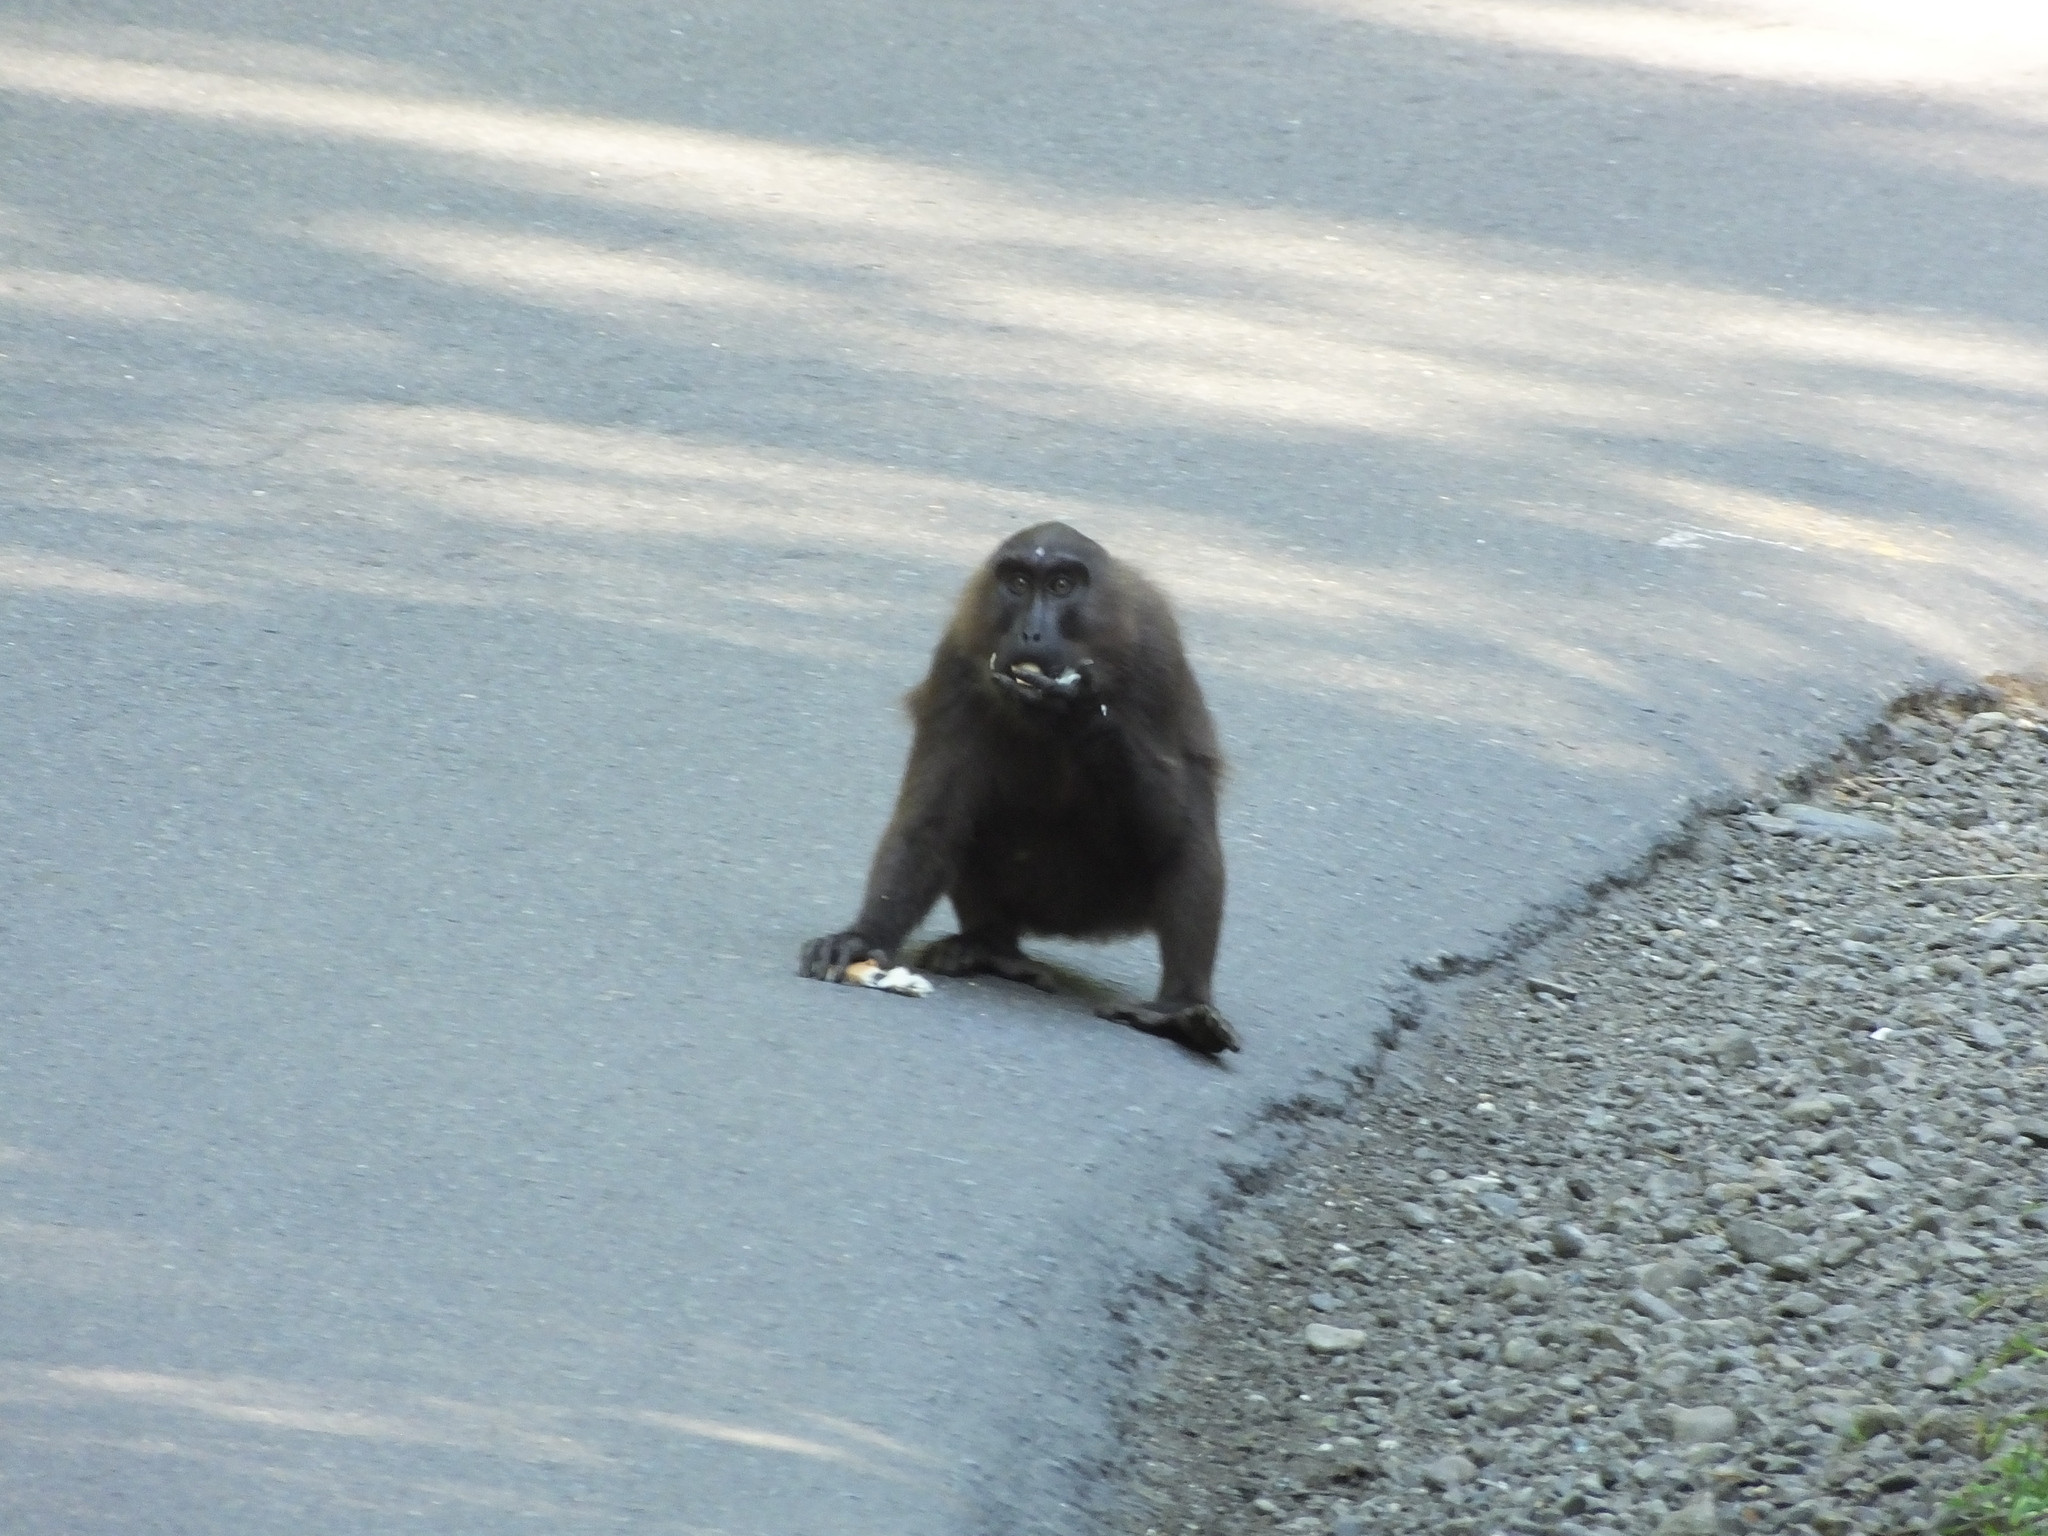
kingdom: Animalia
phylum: Chordata
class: Mammalia
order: Primates
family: Cercopithecidae
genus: Macaca
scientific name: Macaca maura
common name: Moor macaque
